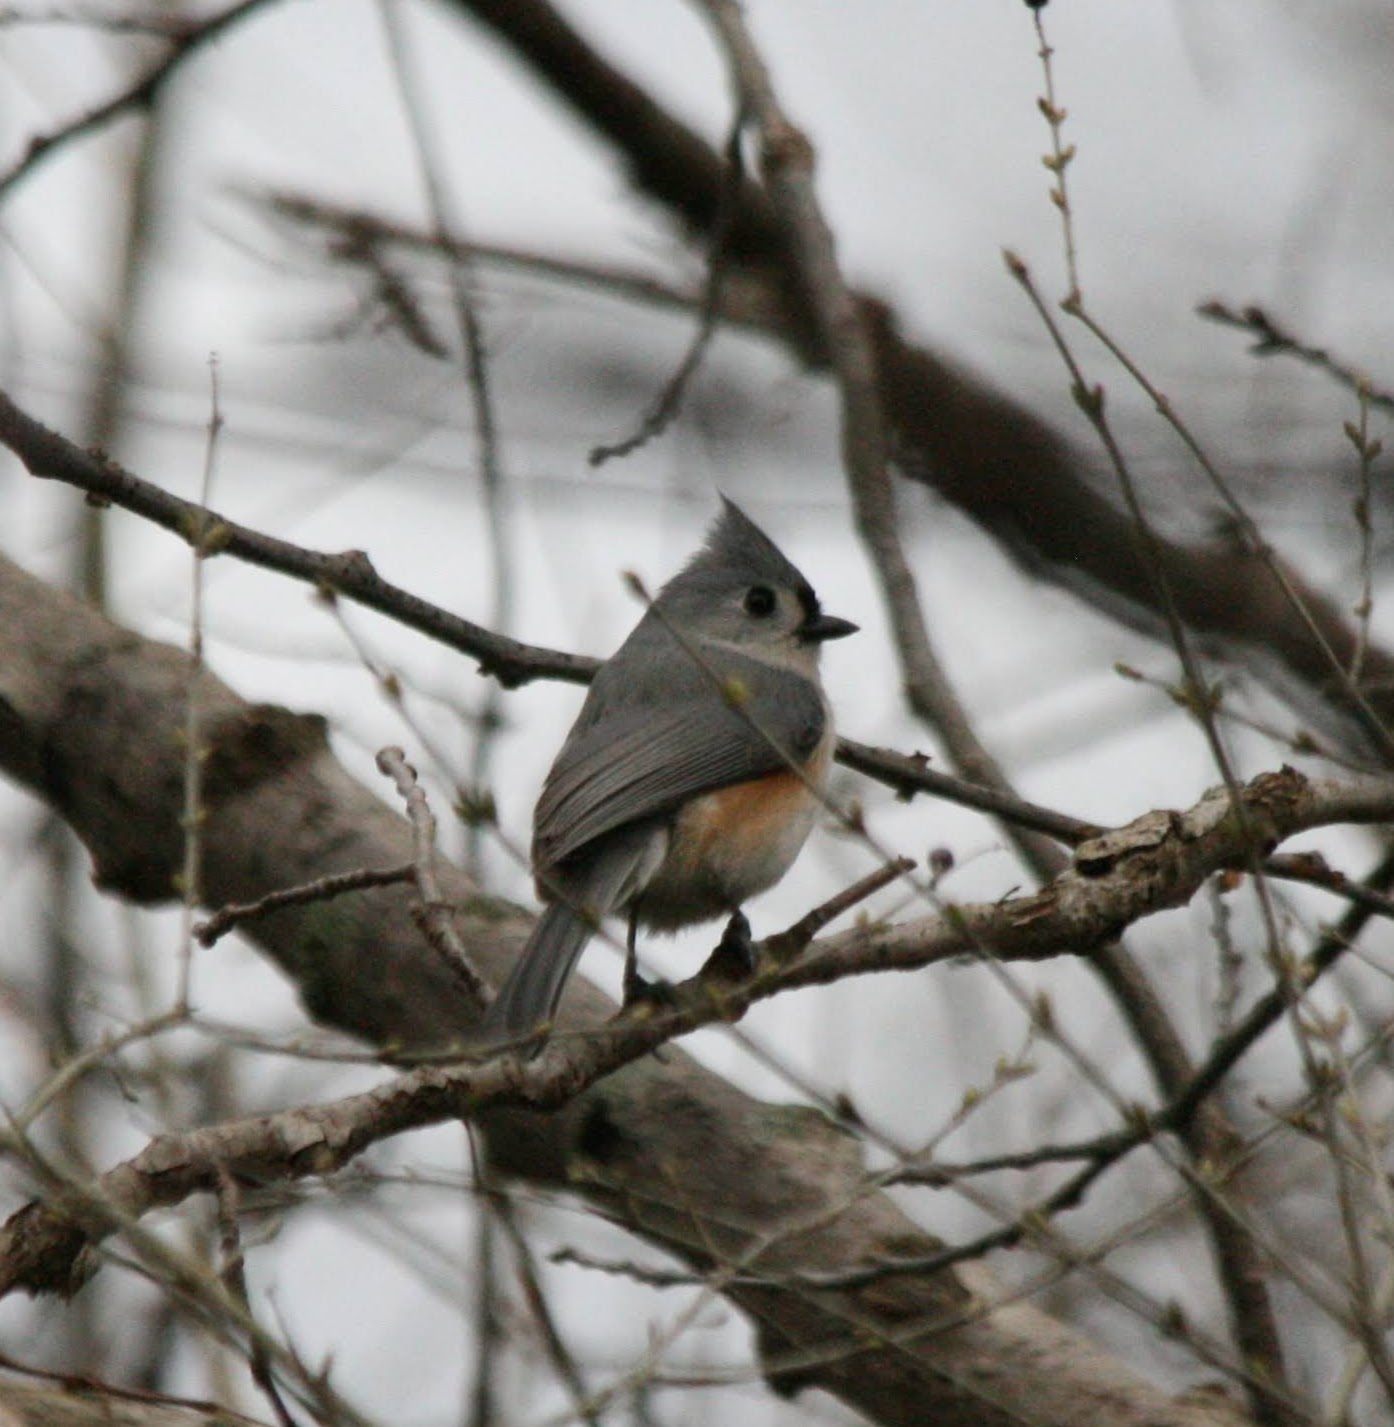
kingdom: Animalia
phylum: Chordata
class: Aves
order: Passeriformes
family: Paridae
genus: Baeolophus
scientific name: Baeolophus bicolor
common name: Tufted titmouse
